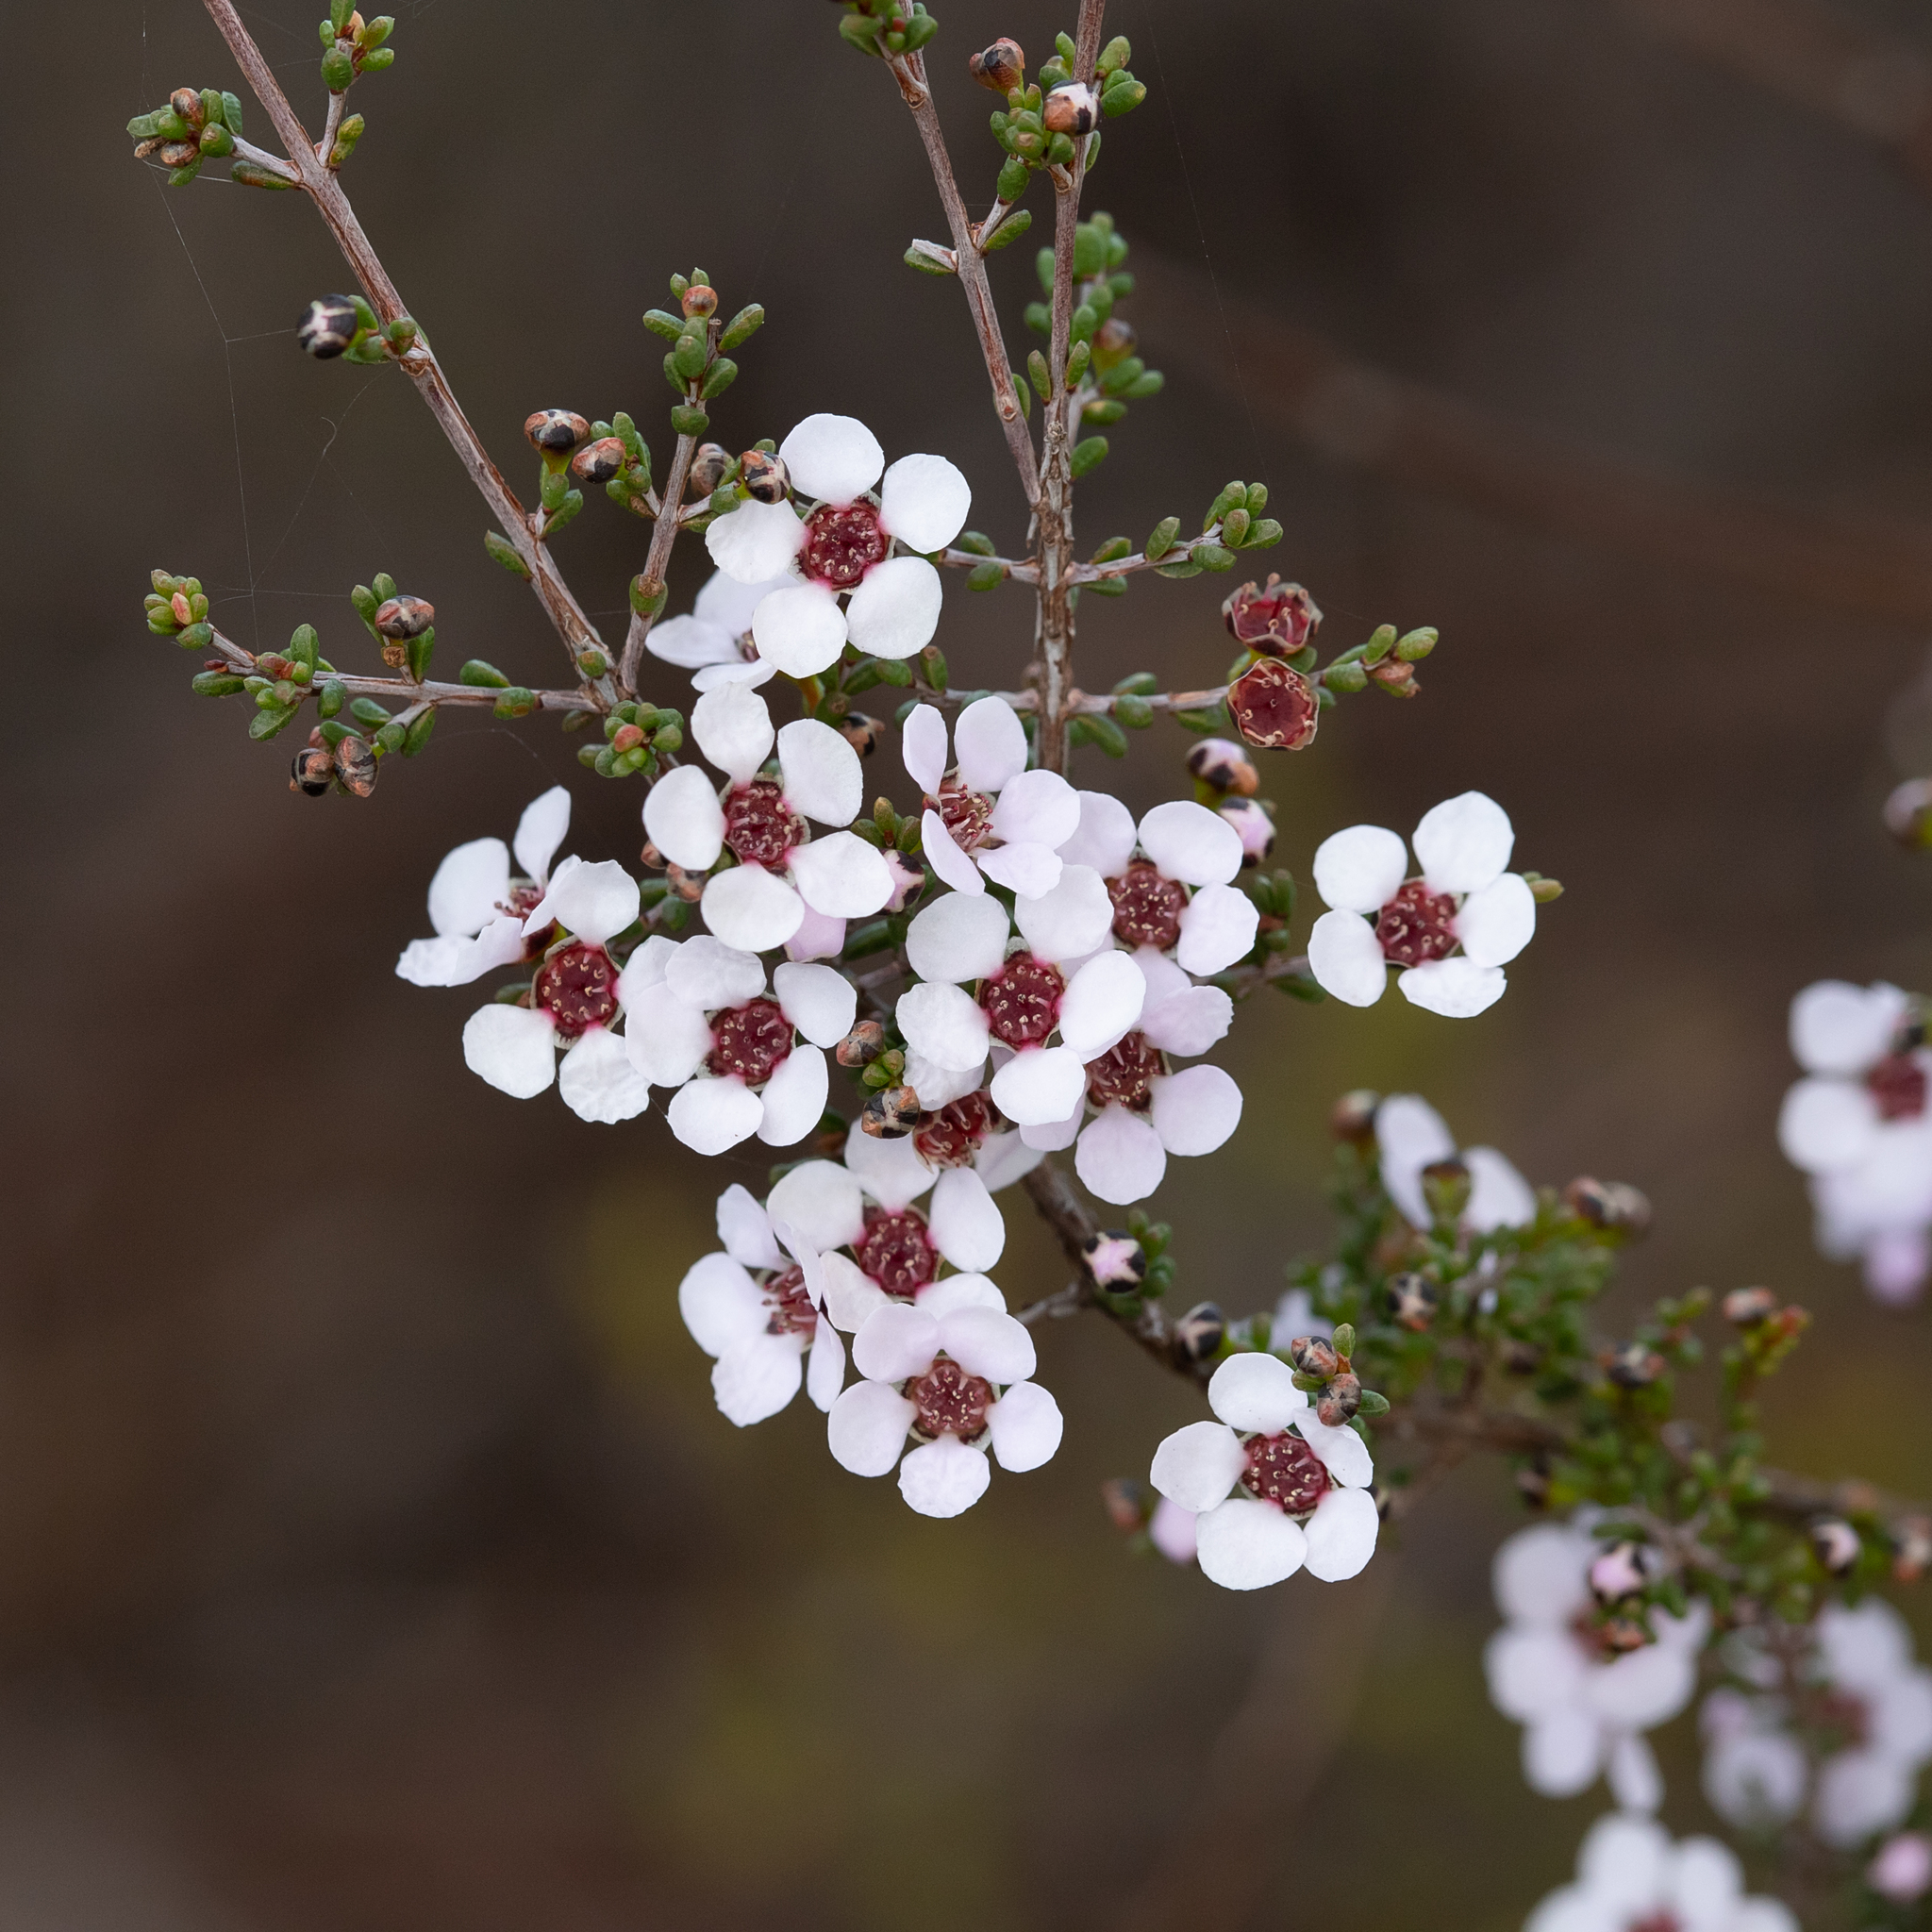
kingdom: Plantae
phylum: Tracheophyta
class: Magnoliopsida
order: Myrtales
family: Myrtaceae
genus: Rinzia
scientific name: Rinzia orientalis
